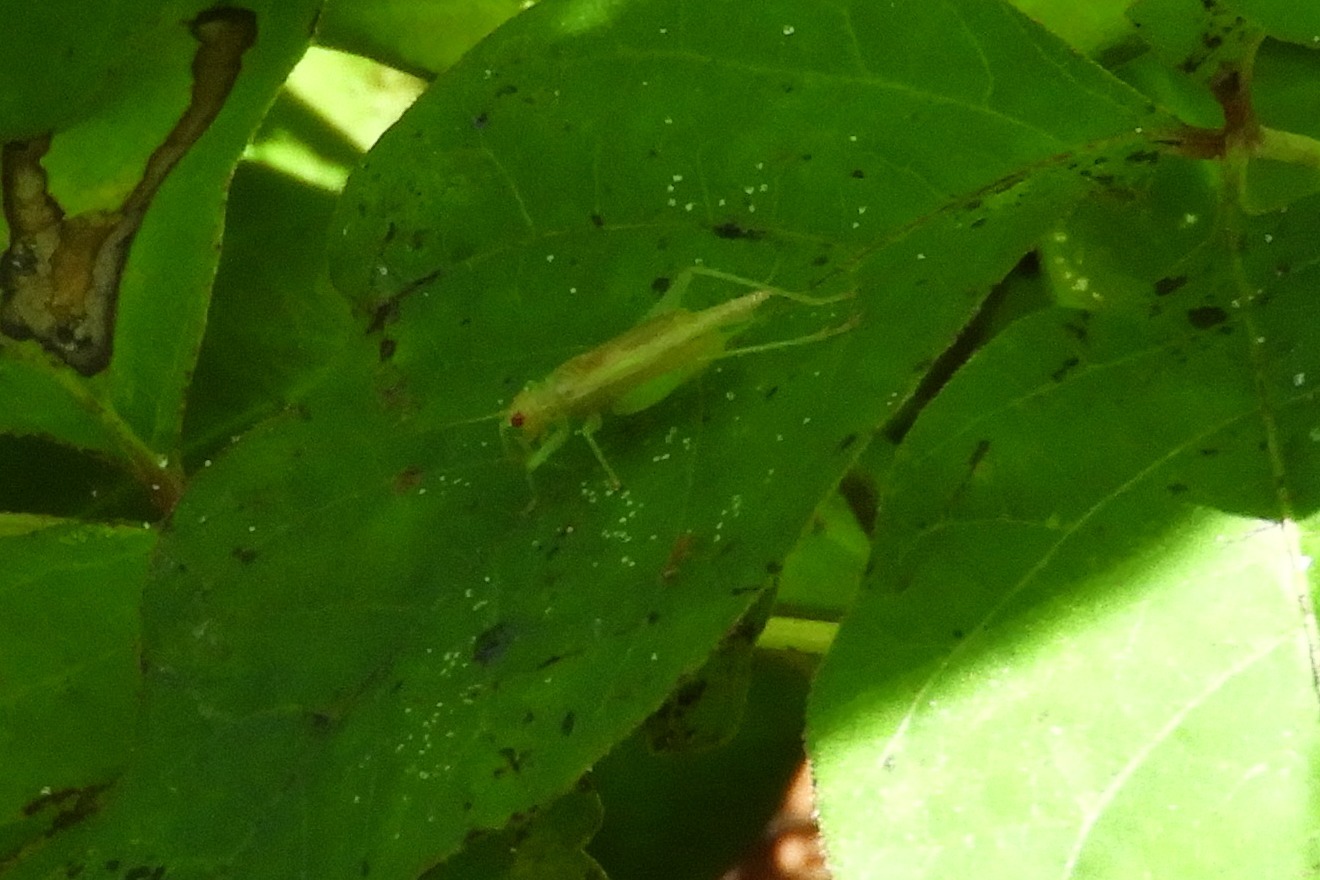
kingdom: Animalia
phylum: Arthropoda
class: Insecta
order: Orthoptera
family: Trigonidiidae
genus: Cyrtoxipha
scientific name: Cyrtoxipha columbiana
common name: Columbian trig
